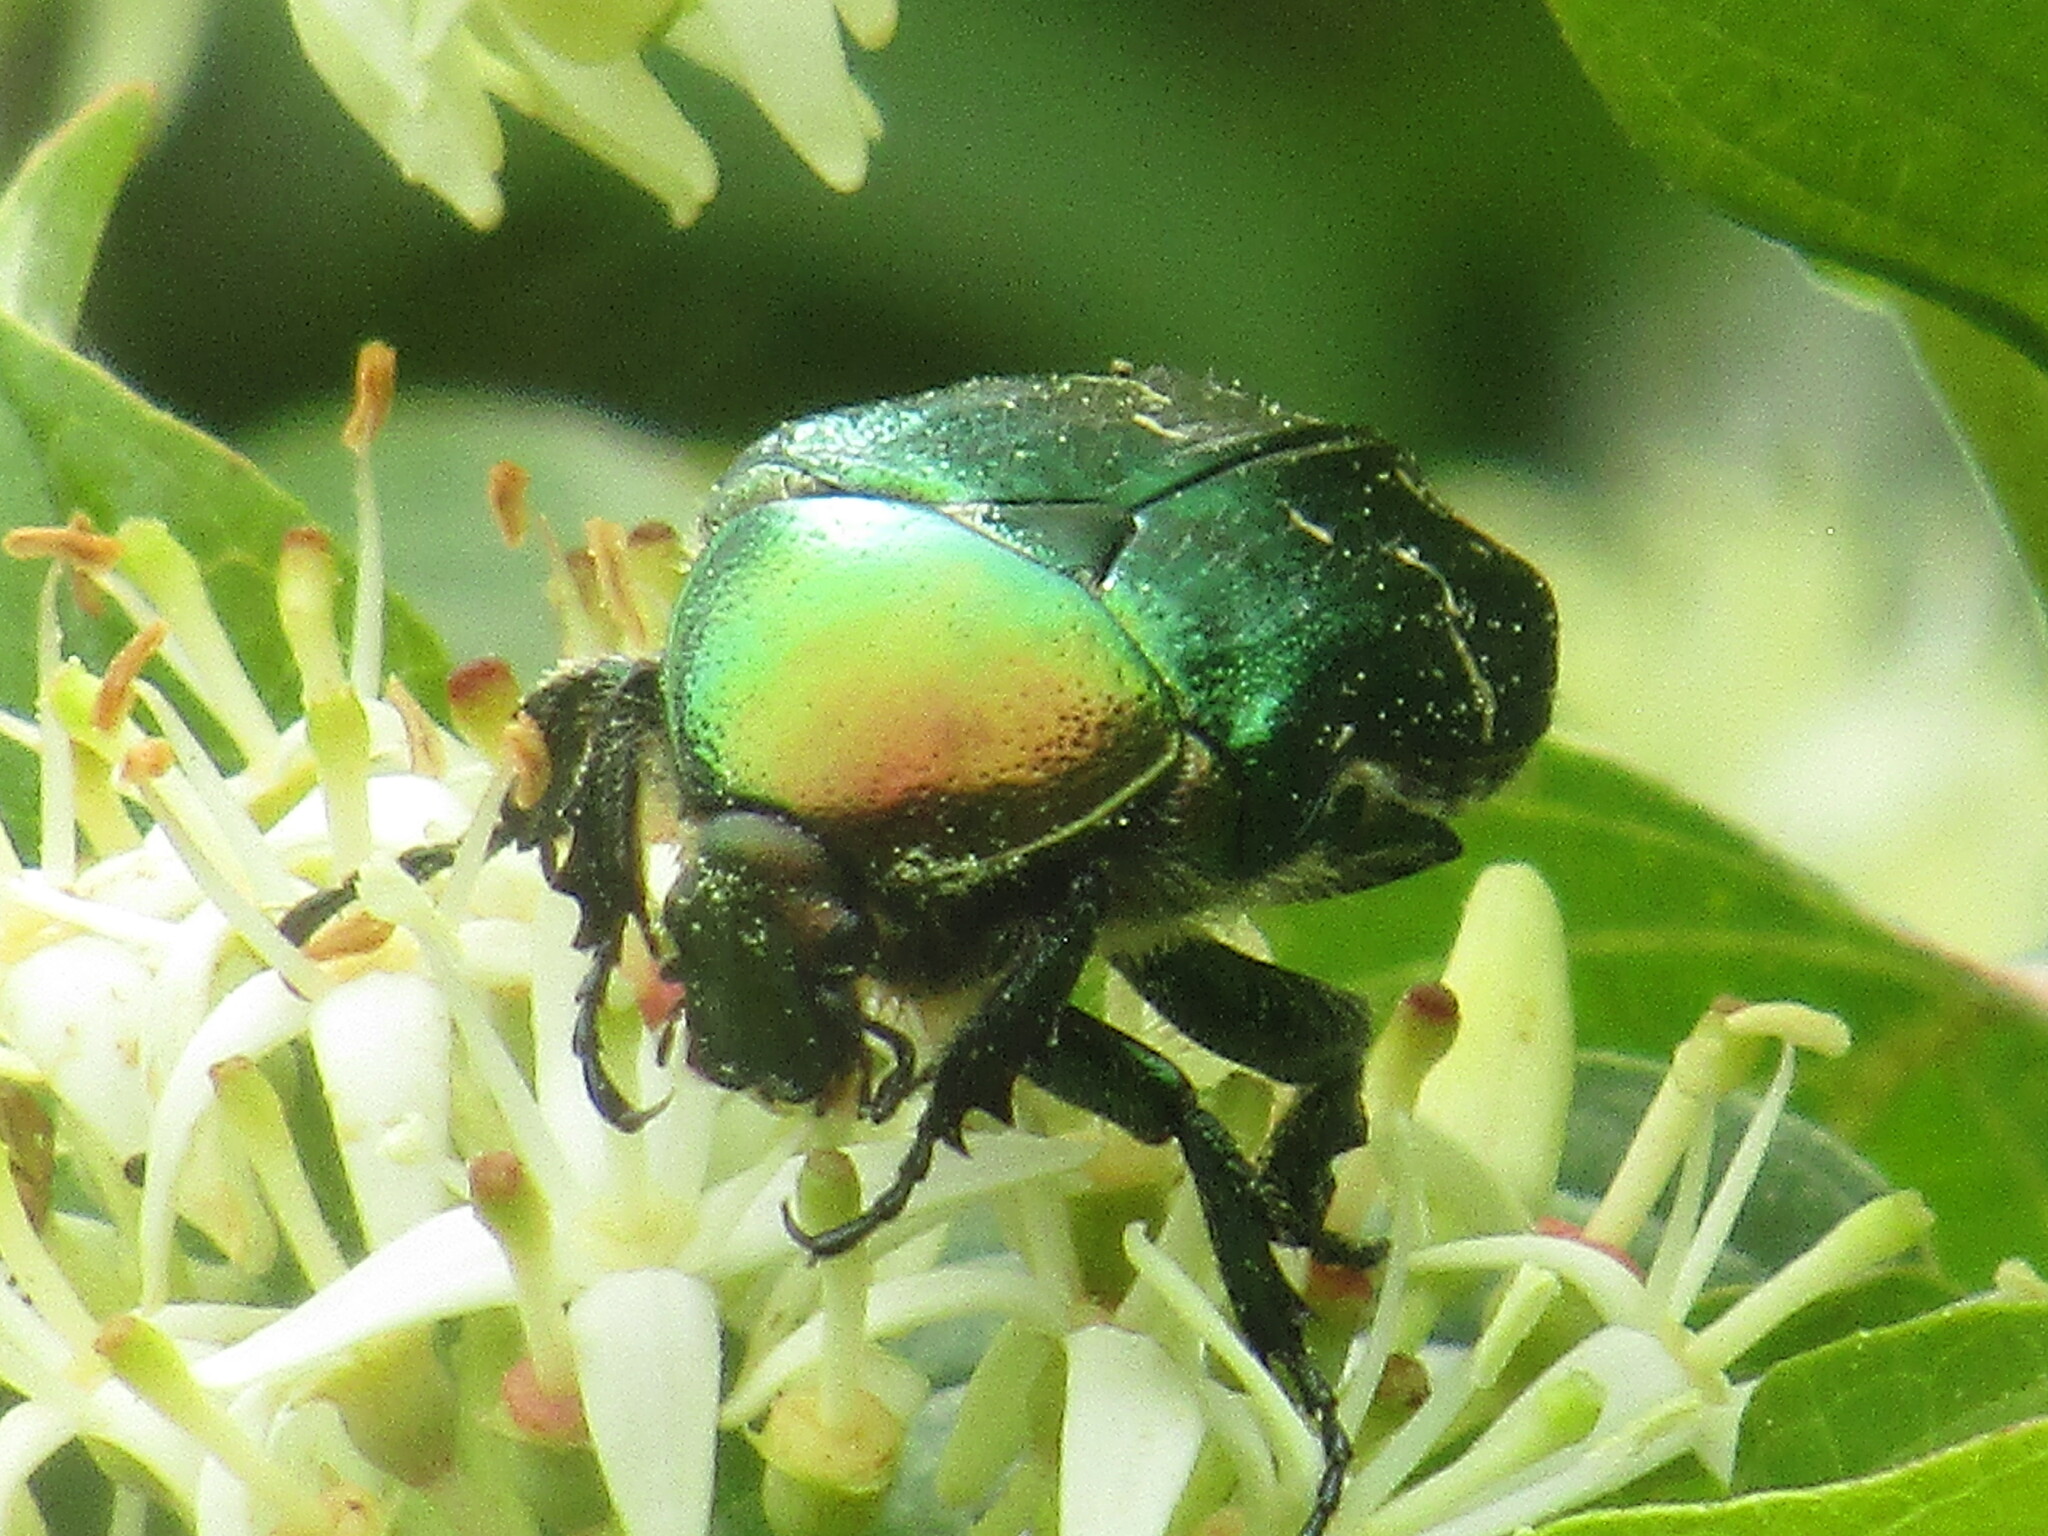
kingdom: Animalia
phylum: Arthropoda
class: Insecta
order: Coleoptera
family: Scarabaeidae
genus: Cetonia
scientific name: Cetonia aurata
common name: Rose chafer
